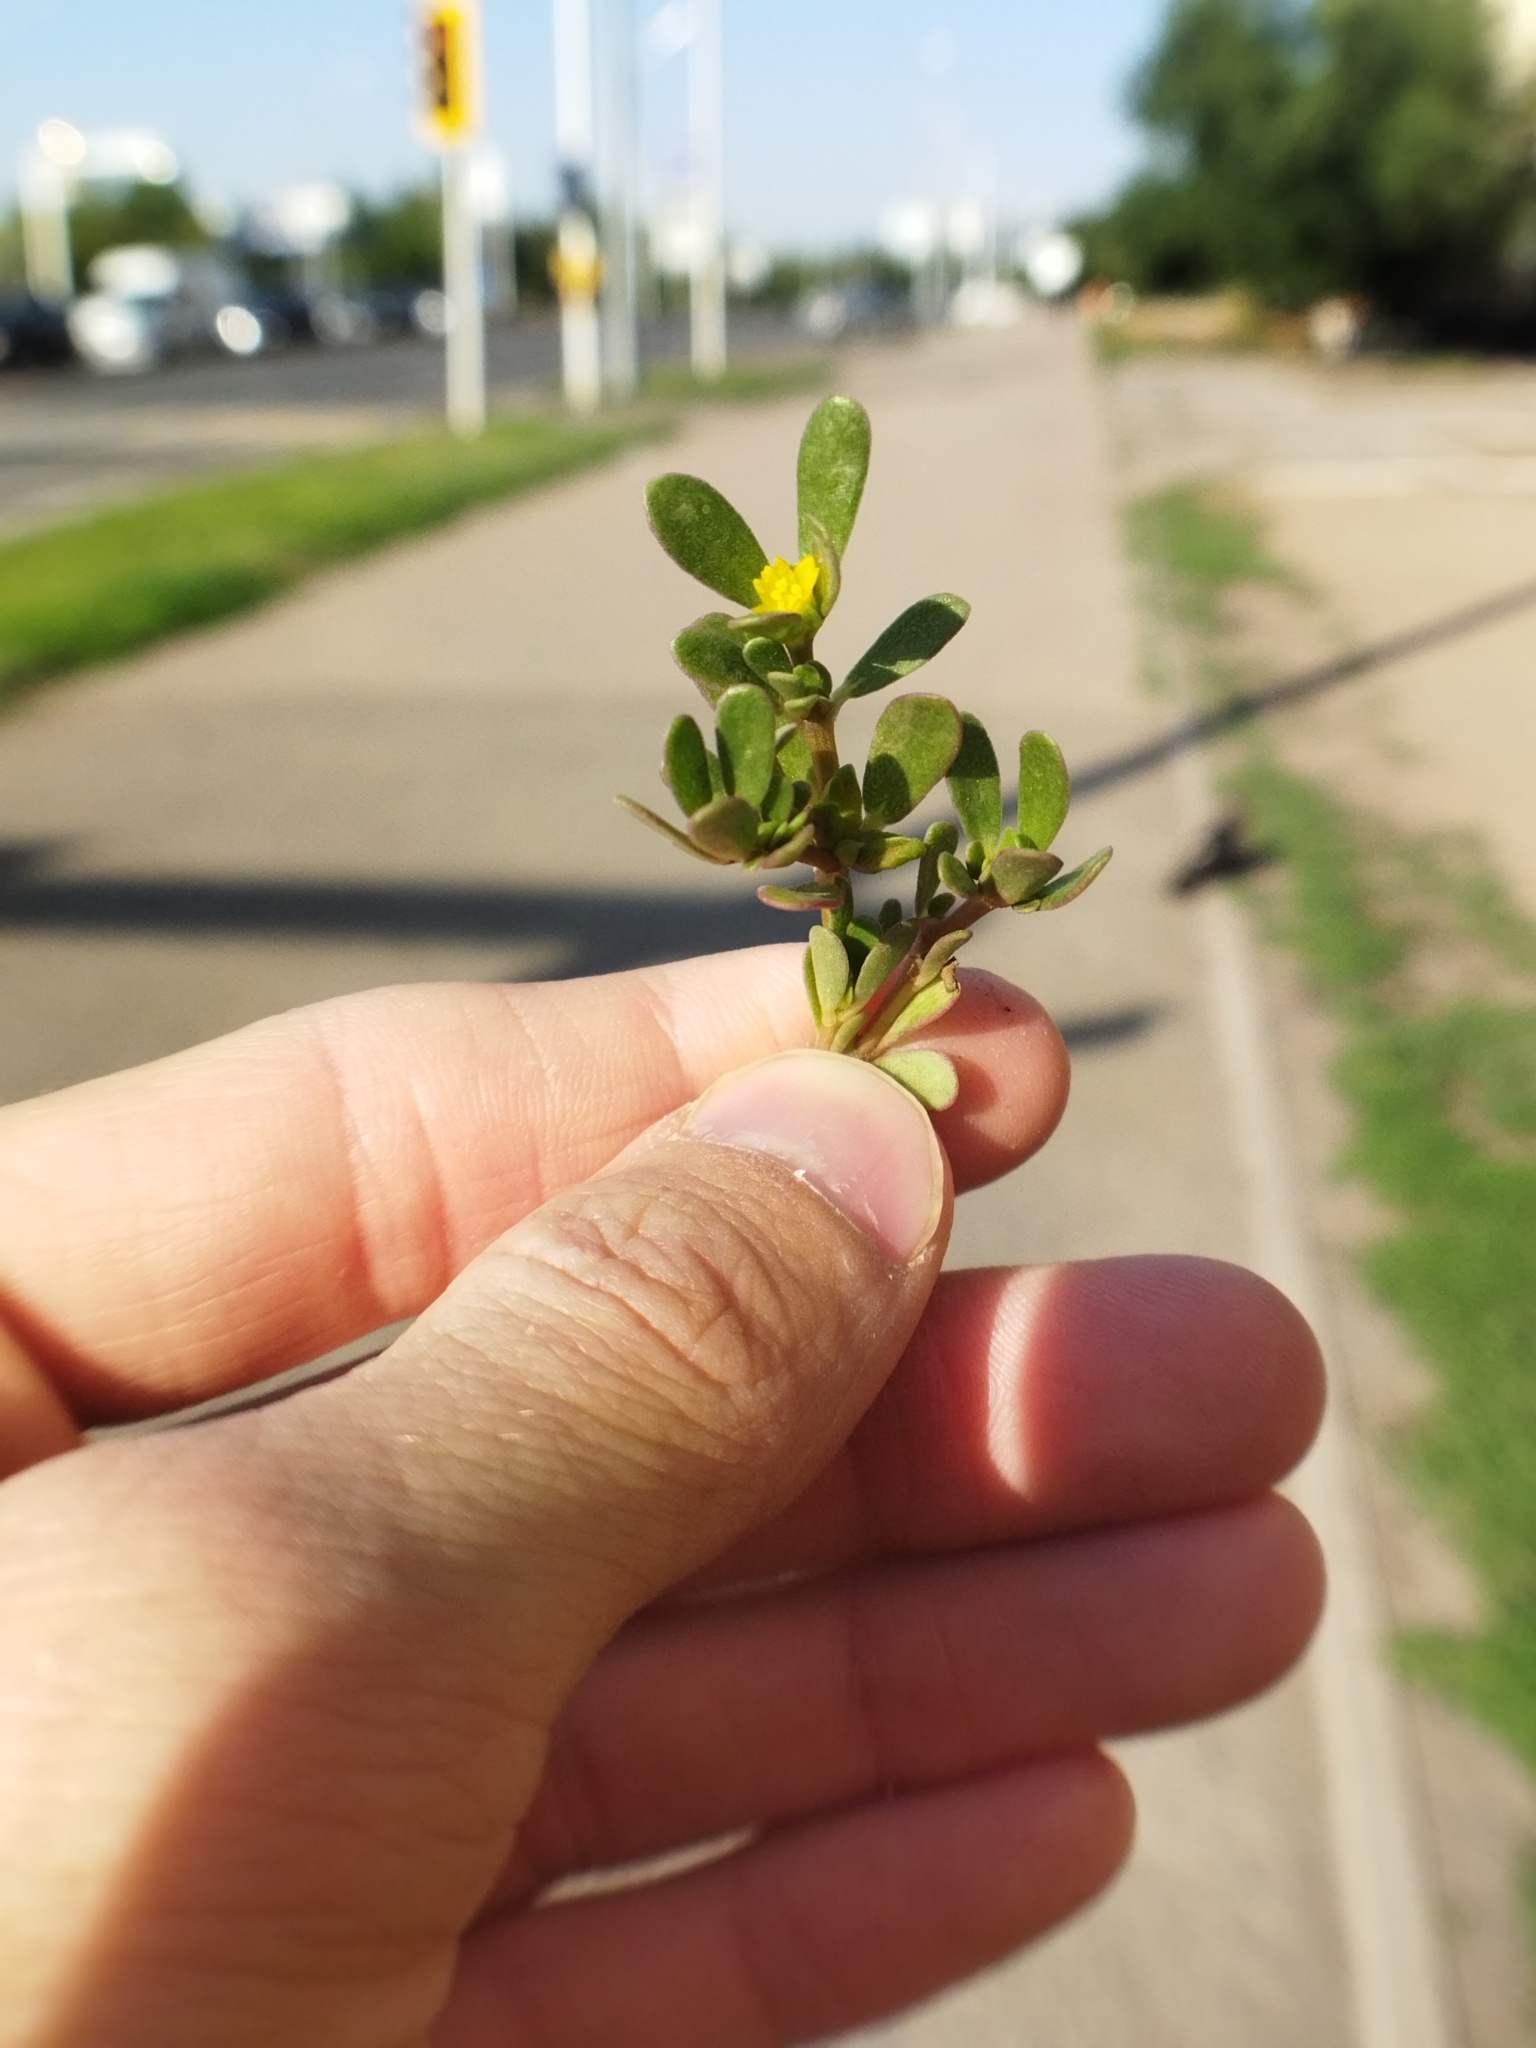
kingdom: Plantae
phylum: Tracheophyta
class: Magnoliopsida
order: Caryophyllales
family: Portulacaceae
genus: Portulaca
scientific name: Portulaca oleracea
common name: Common purslane
